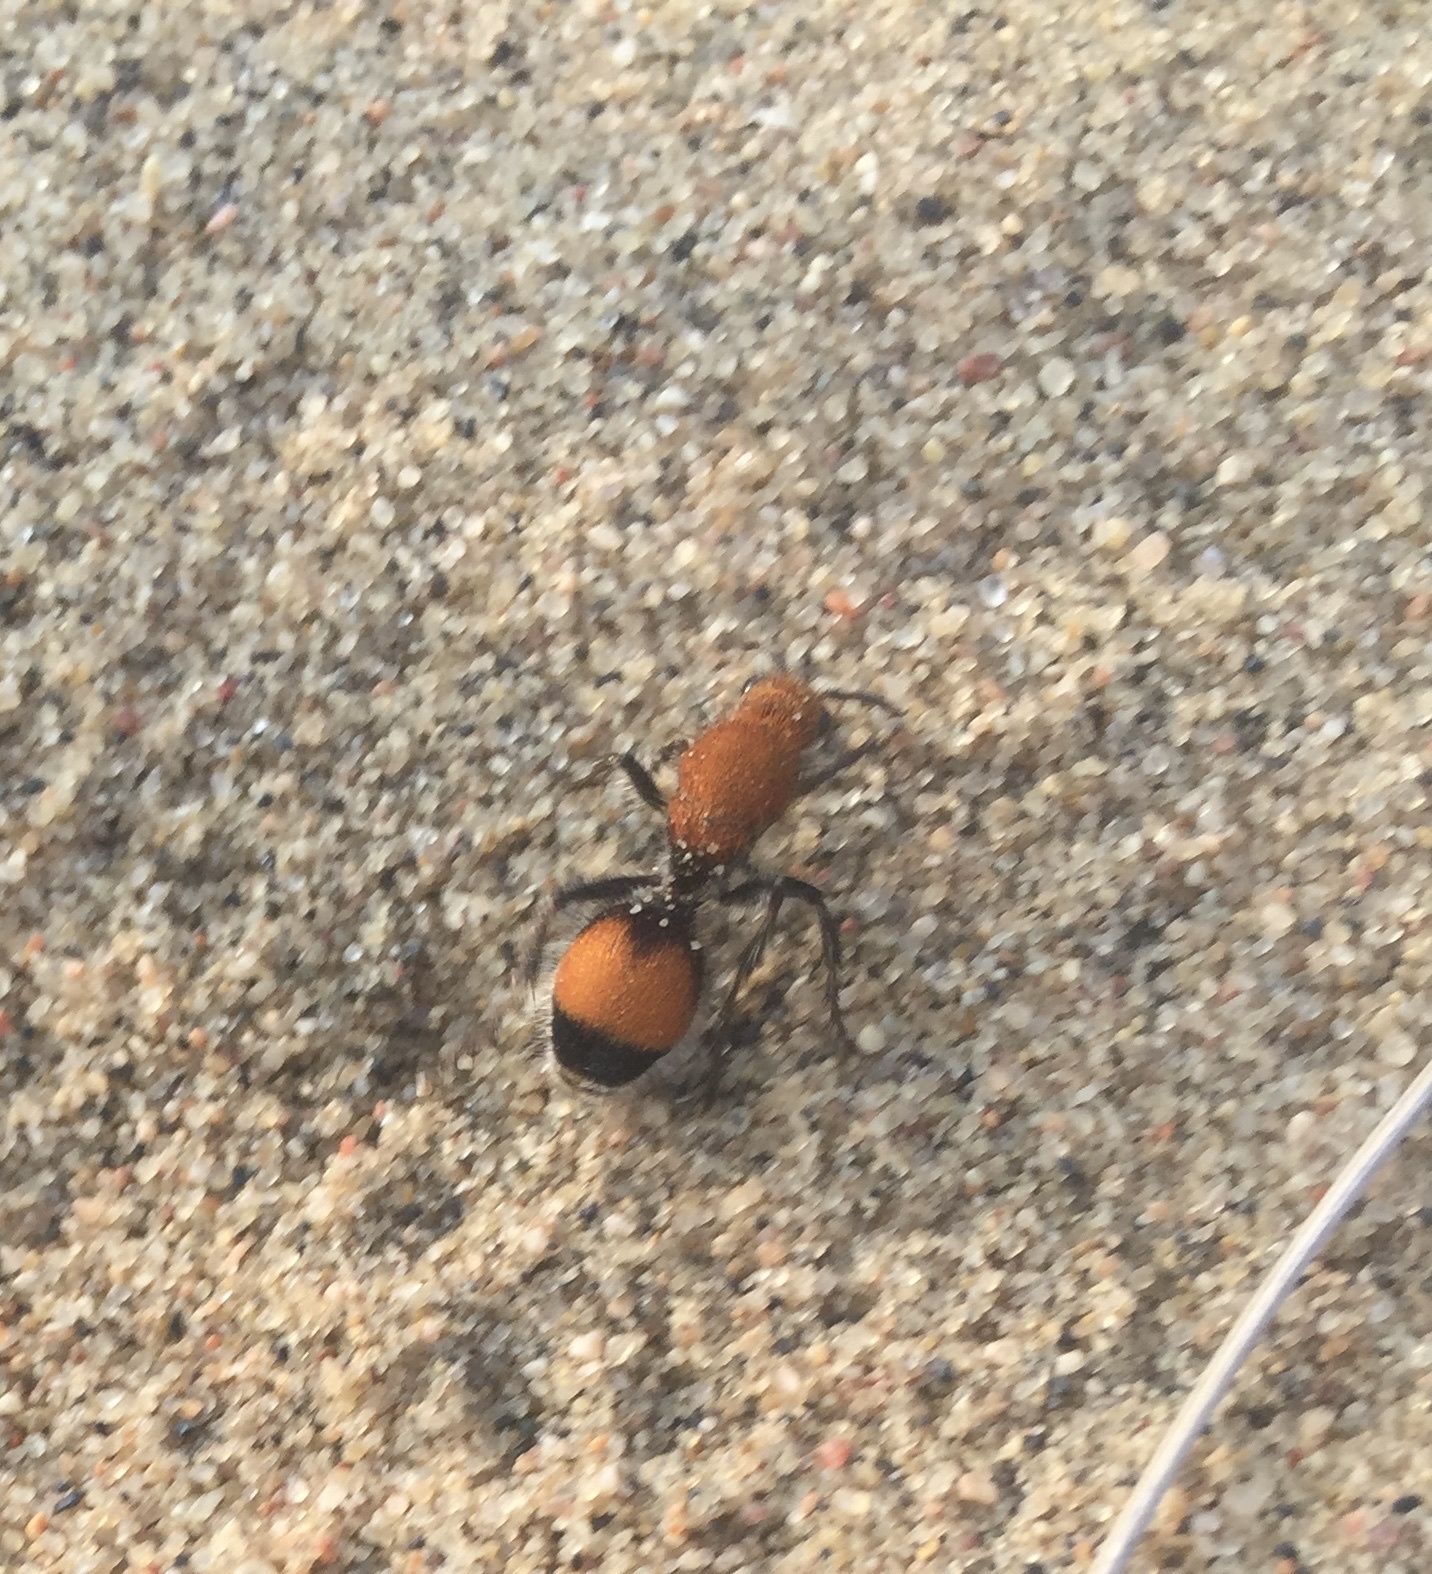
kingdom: Animalia
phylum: Arthropoda
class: Insecta
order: Hymenoptera
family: Mutillidae
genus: Dasymutilla
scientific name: Dasymutilla
